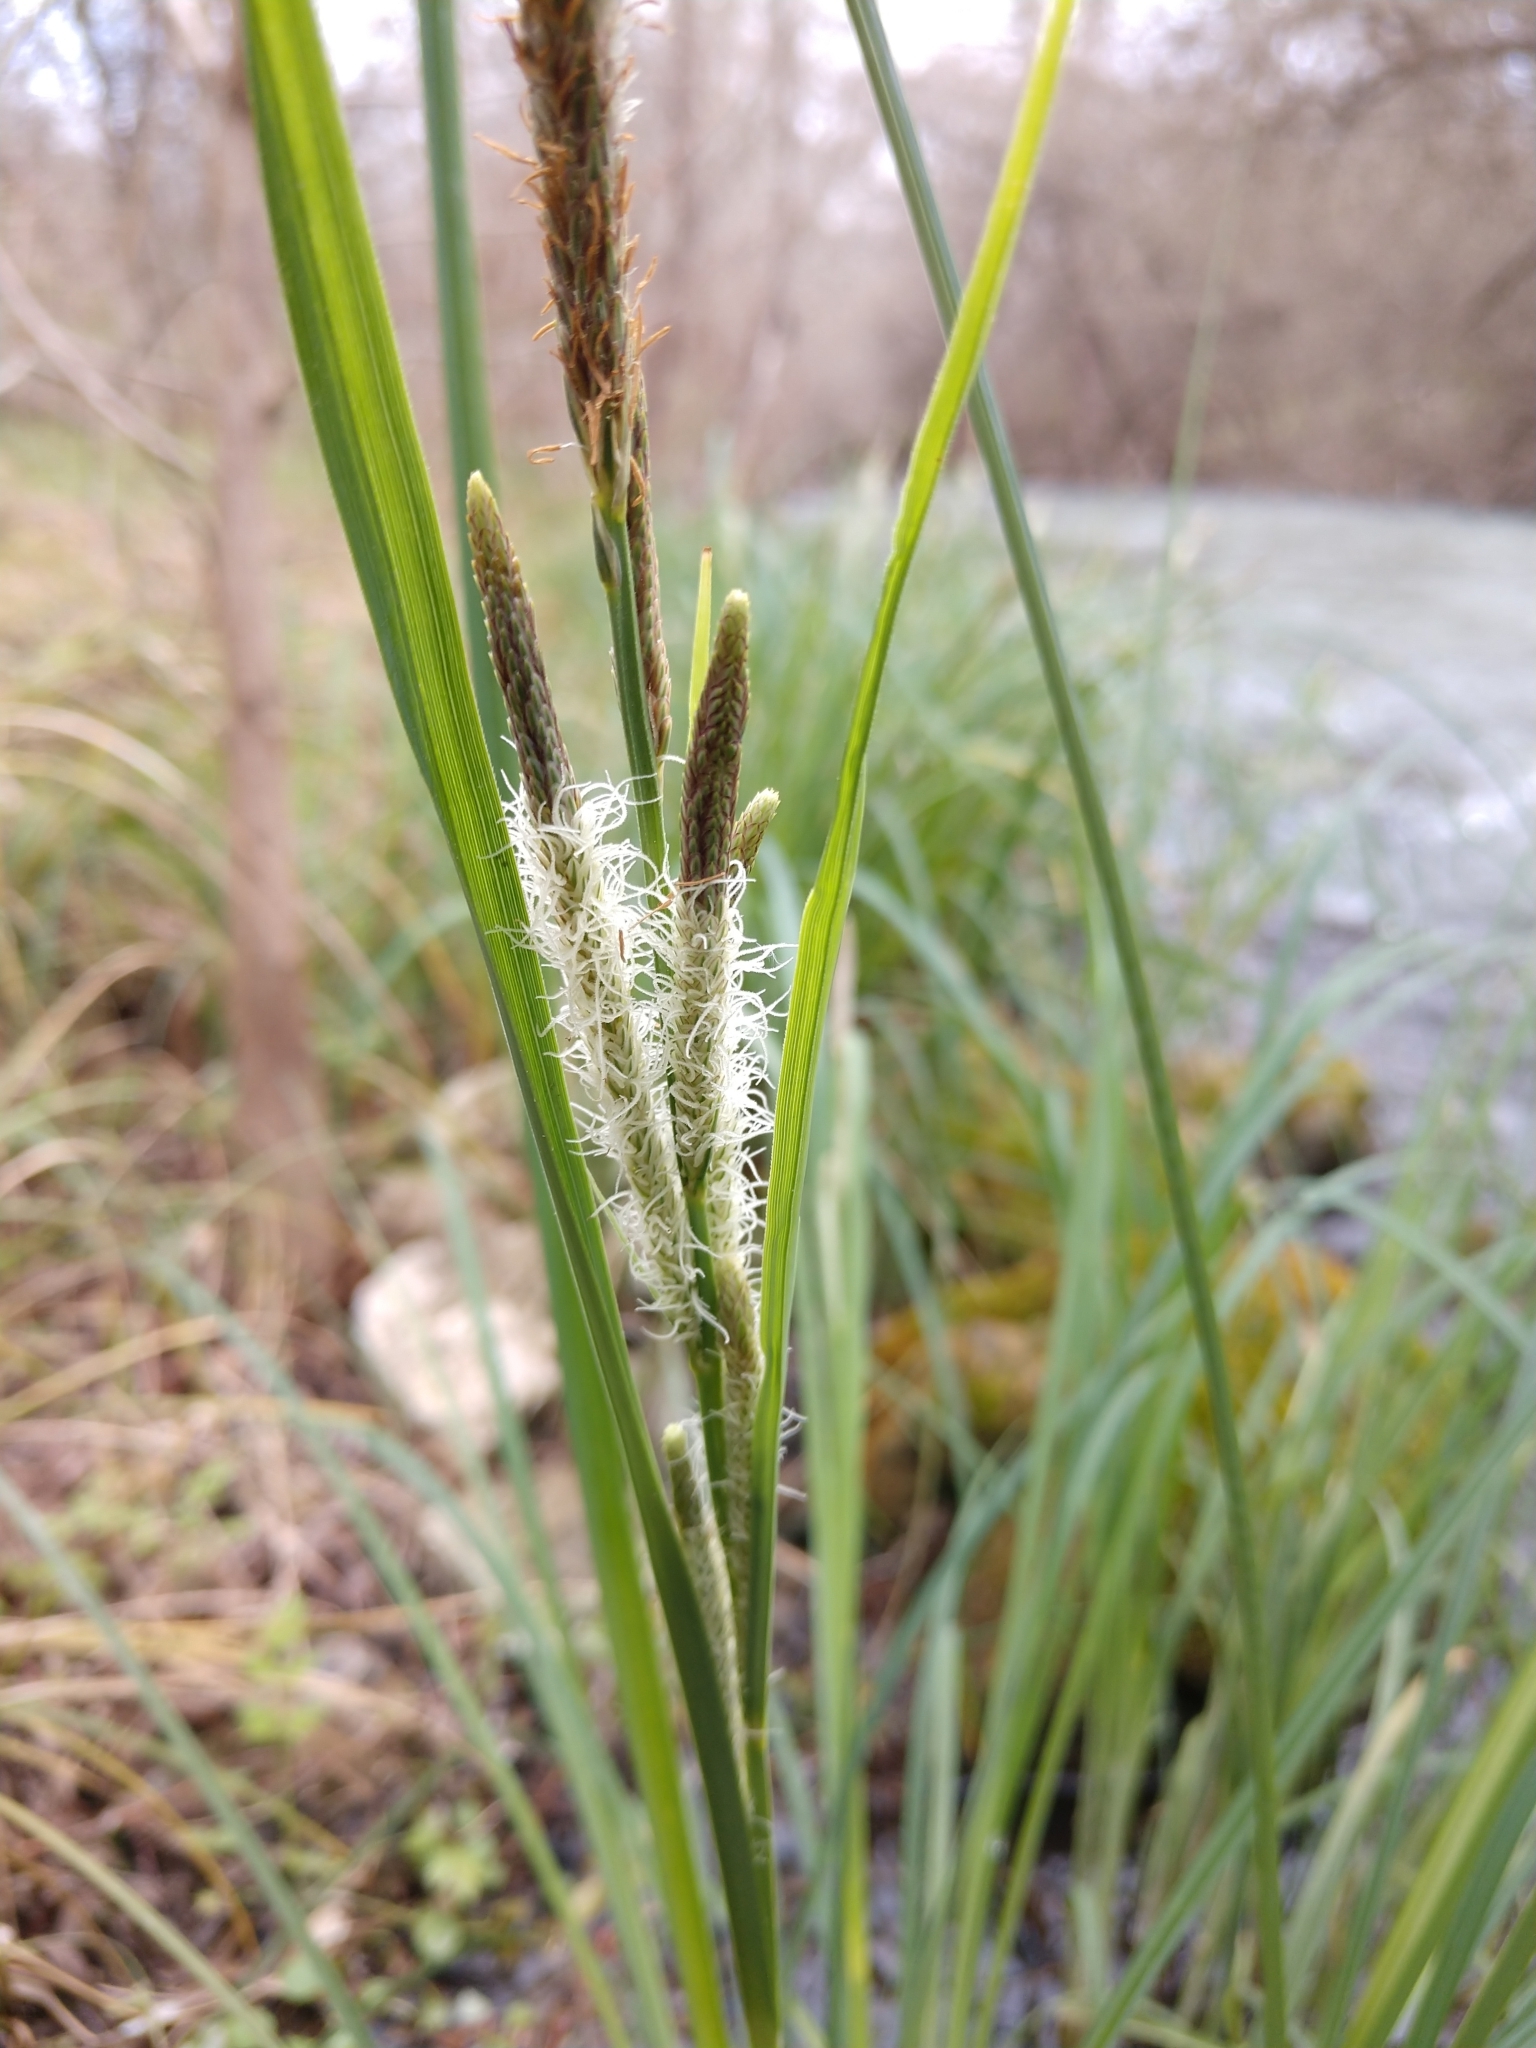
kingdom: Plantae
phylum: Tracheophyta
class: Liliopsida
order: Poales
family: Cyperaceae
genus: Carex
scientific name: Carex emoryi
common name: Emory's sedge
